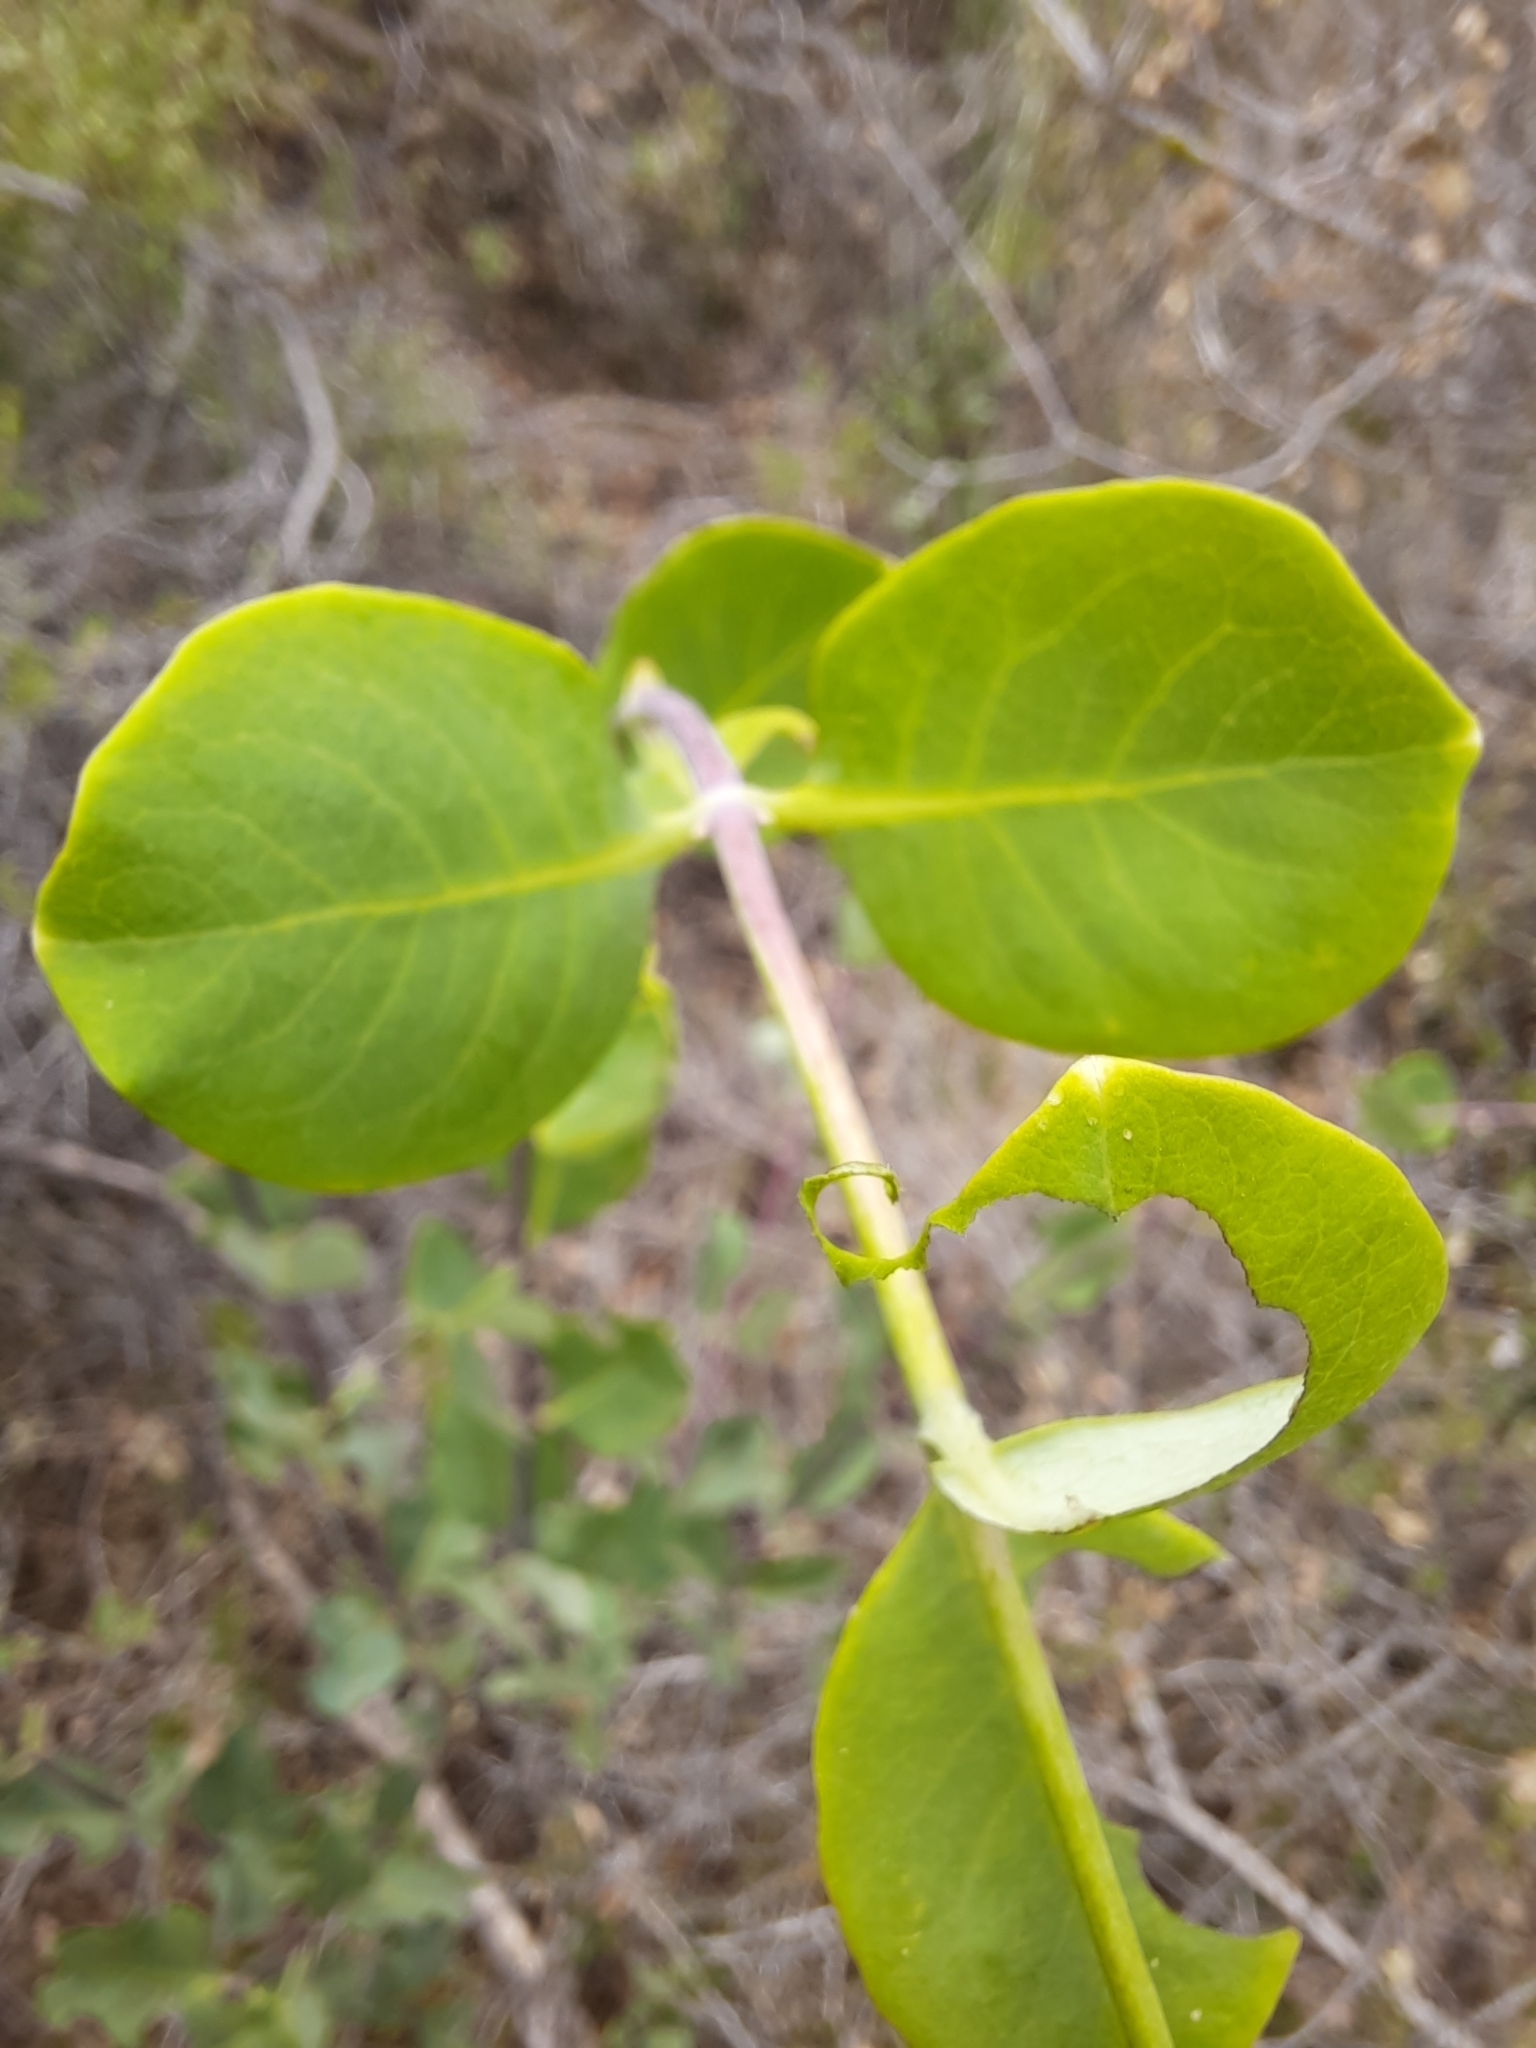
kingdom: Plantae
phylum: Tracheophyta
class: Magnoliopsida
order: Dipsacales
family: Caprifoliaceae
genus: Lonicera
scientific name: Lonicera etrusca
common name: Etruscan honeysuckle
